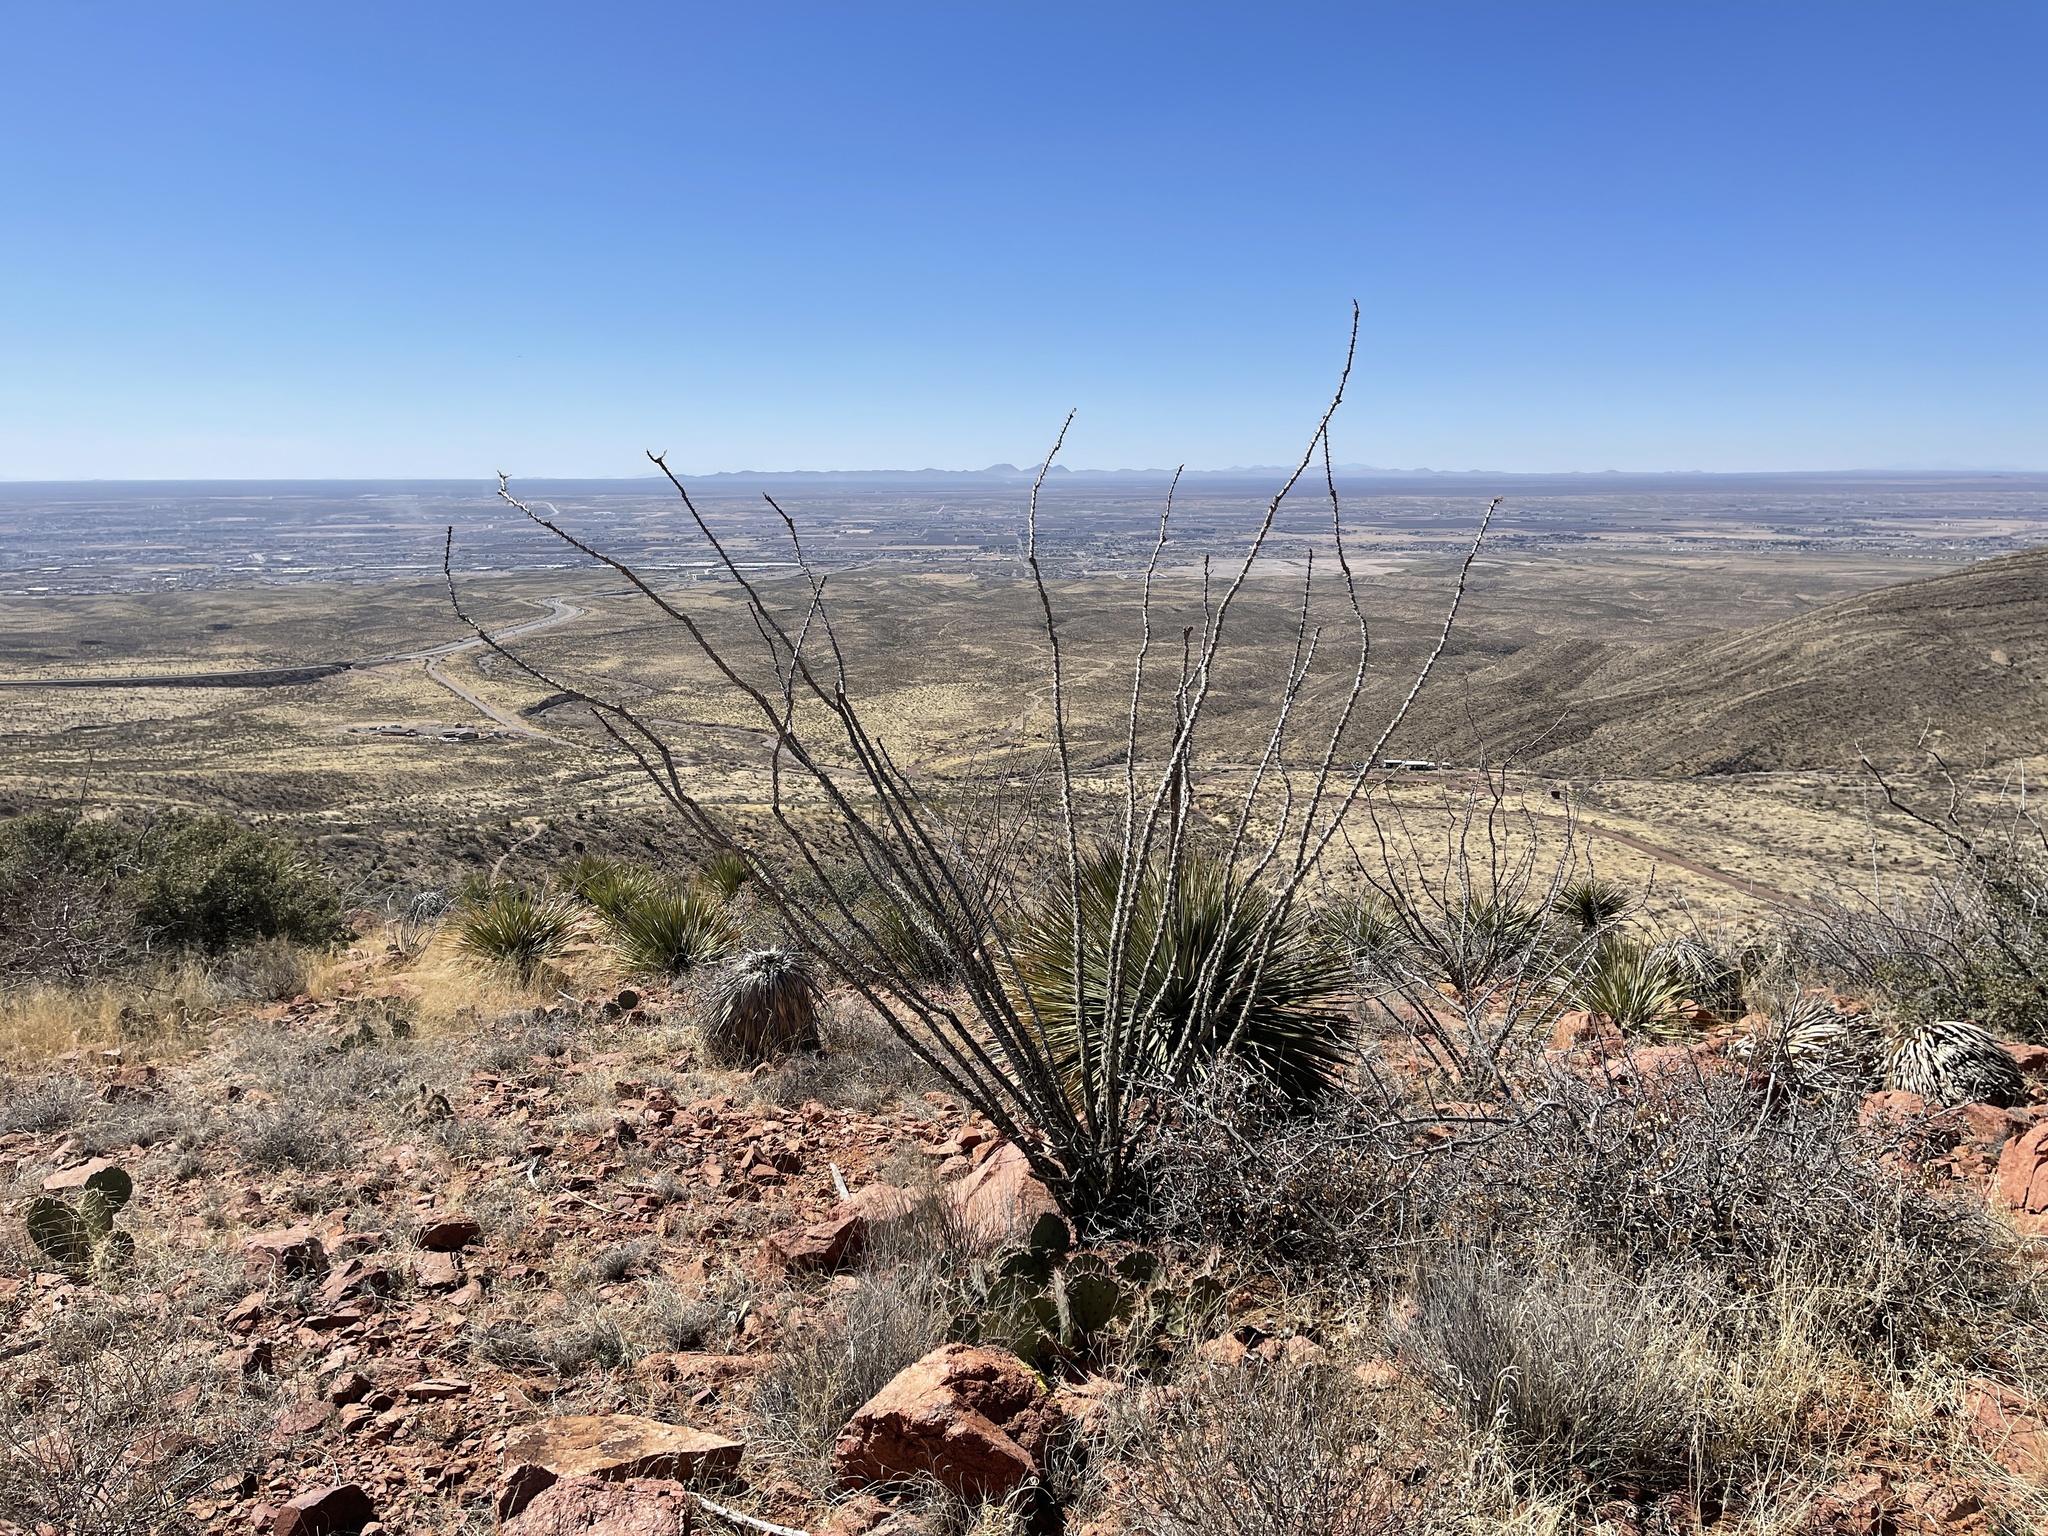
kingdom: Plantae
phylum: Tracheophyta
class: Magnoliopsida
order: Ericales
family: Fouquieriaceae
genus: Fouquieria
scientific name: Fouquieria splendens
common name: Vine-cactus
